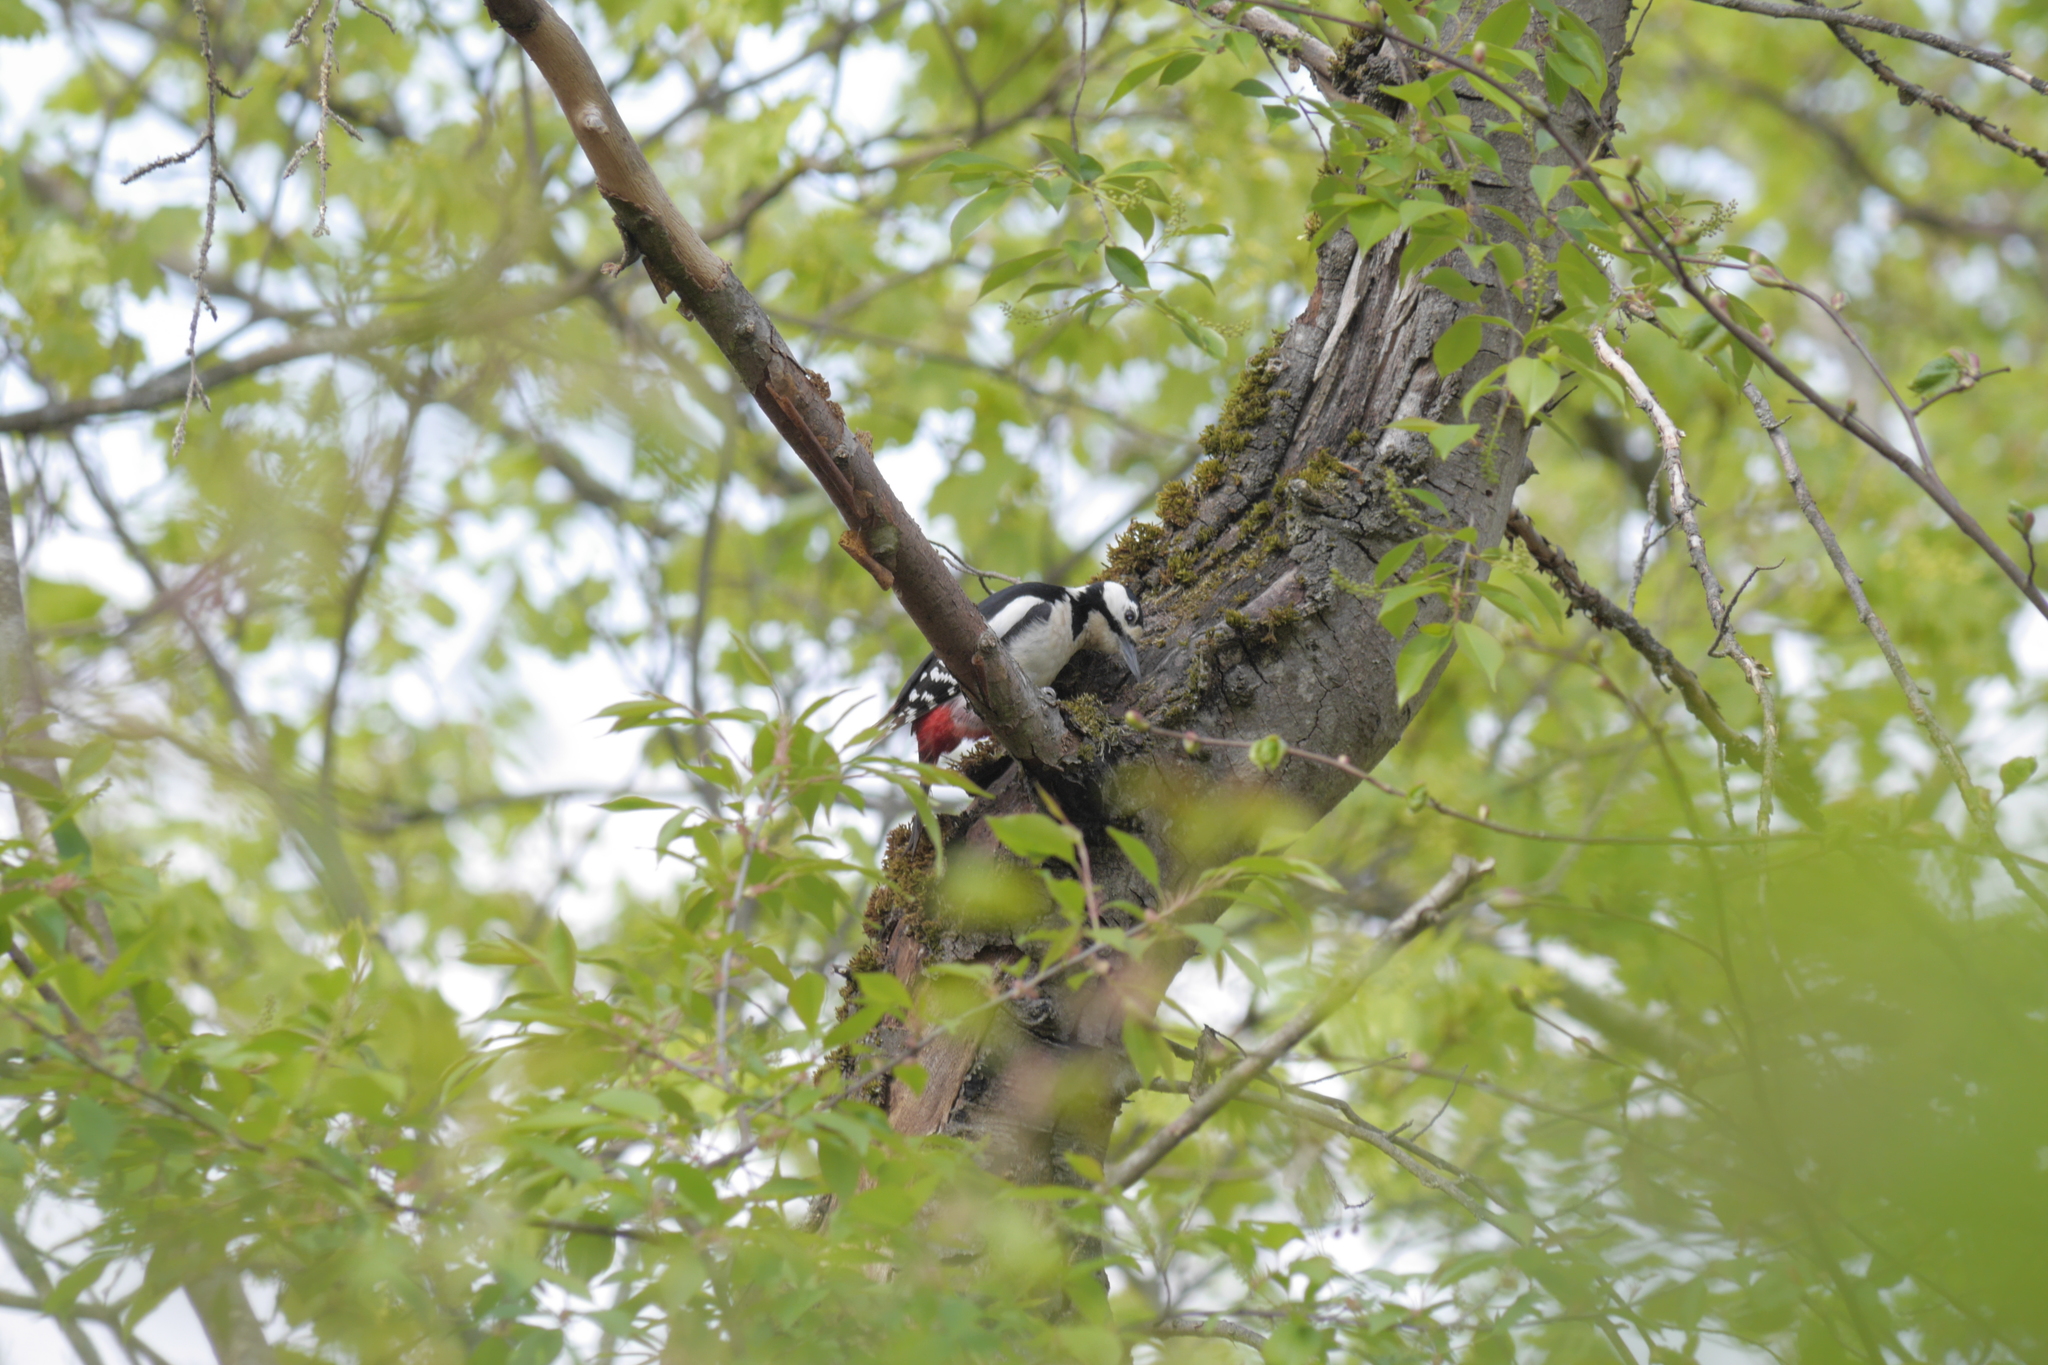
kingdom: Animalia
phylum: Chordata
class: Aves
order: Piciformes
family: Picidae
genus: Dendrocopos
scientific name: Dendrocopos major
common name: Great spotted woodpecker
